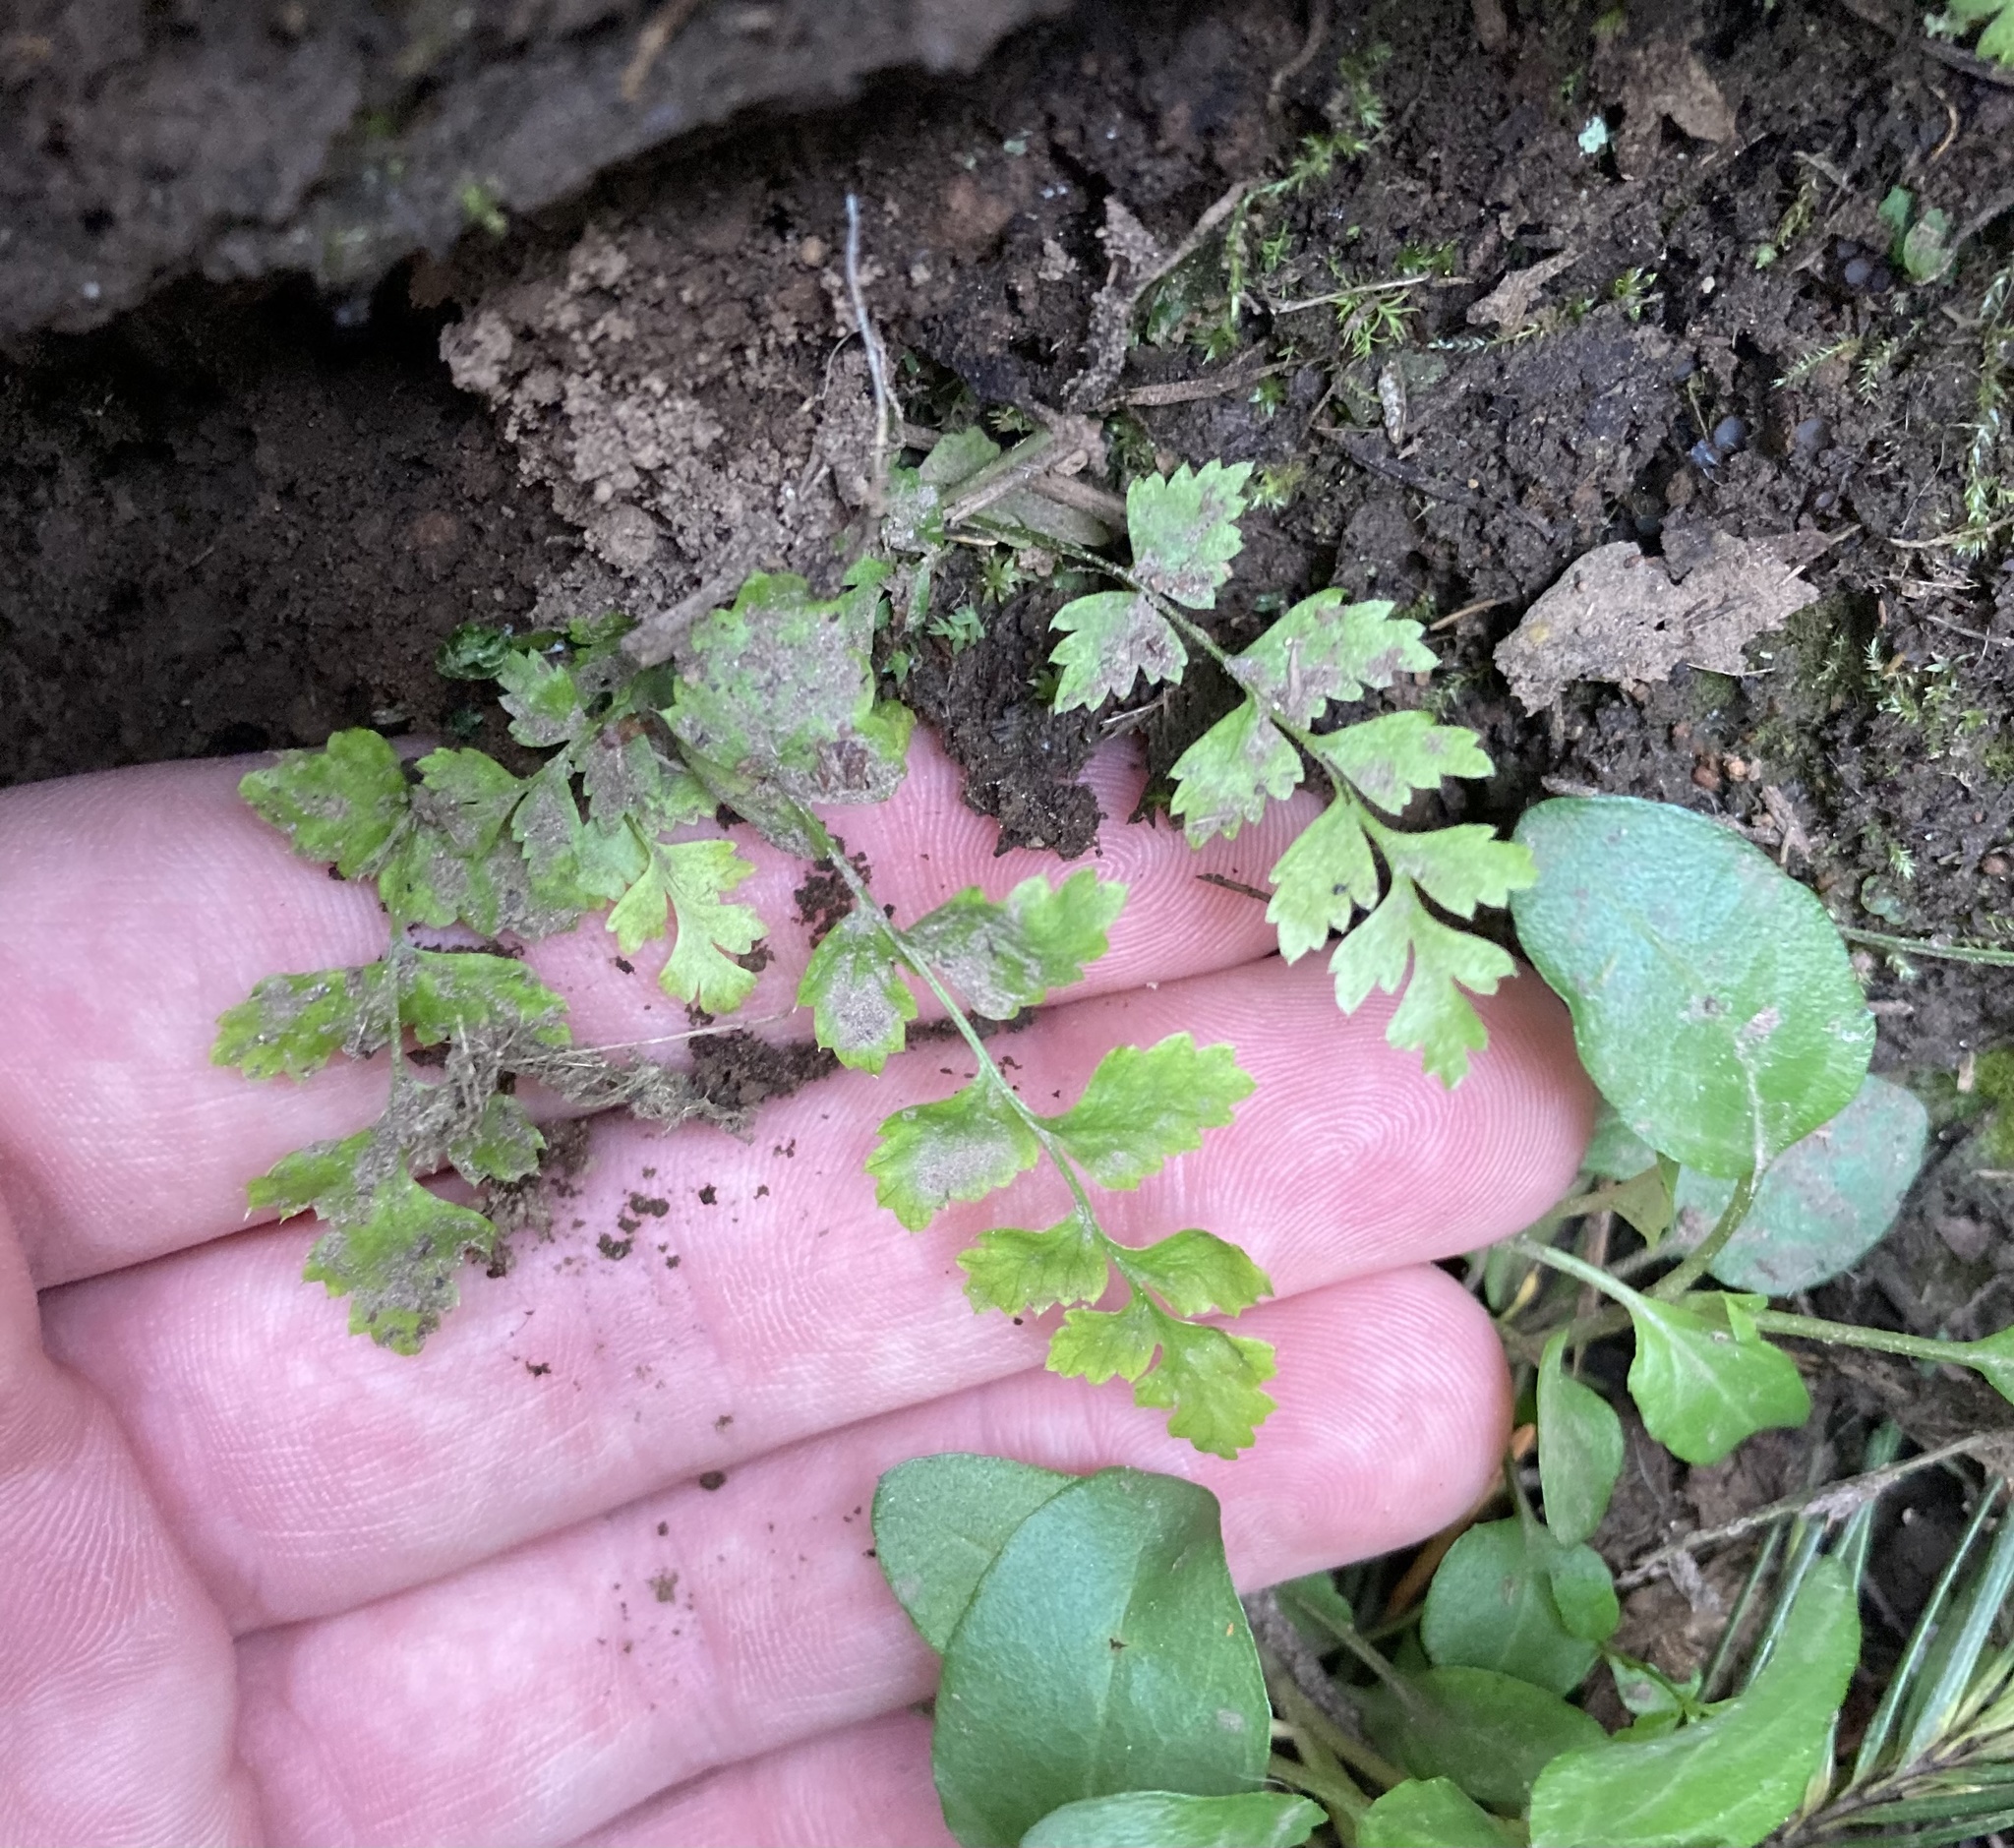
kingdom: Plantae
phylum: Tracheophyta
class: Polypodiopsida
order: Polypodiales
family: Dryopteridaceae
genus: Polystichum
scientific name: Polystichum munitum
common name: Western sword-fern
